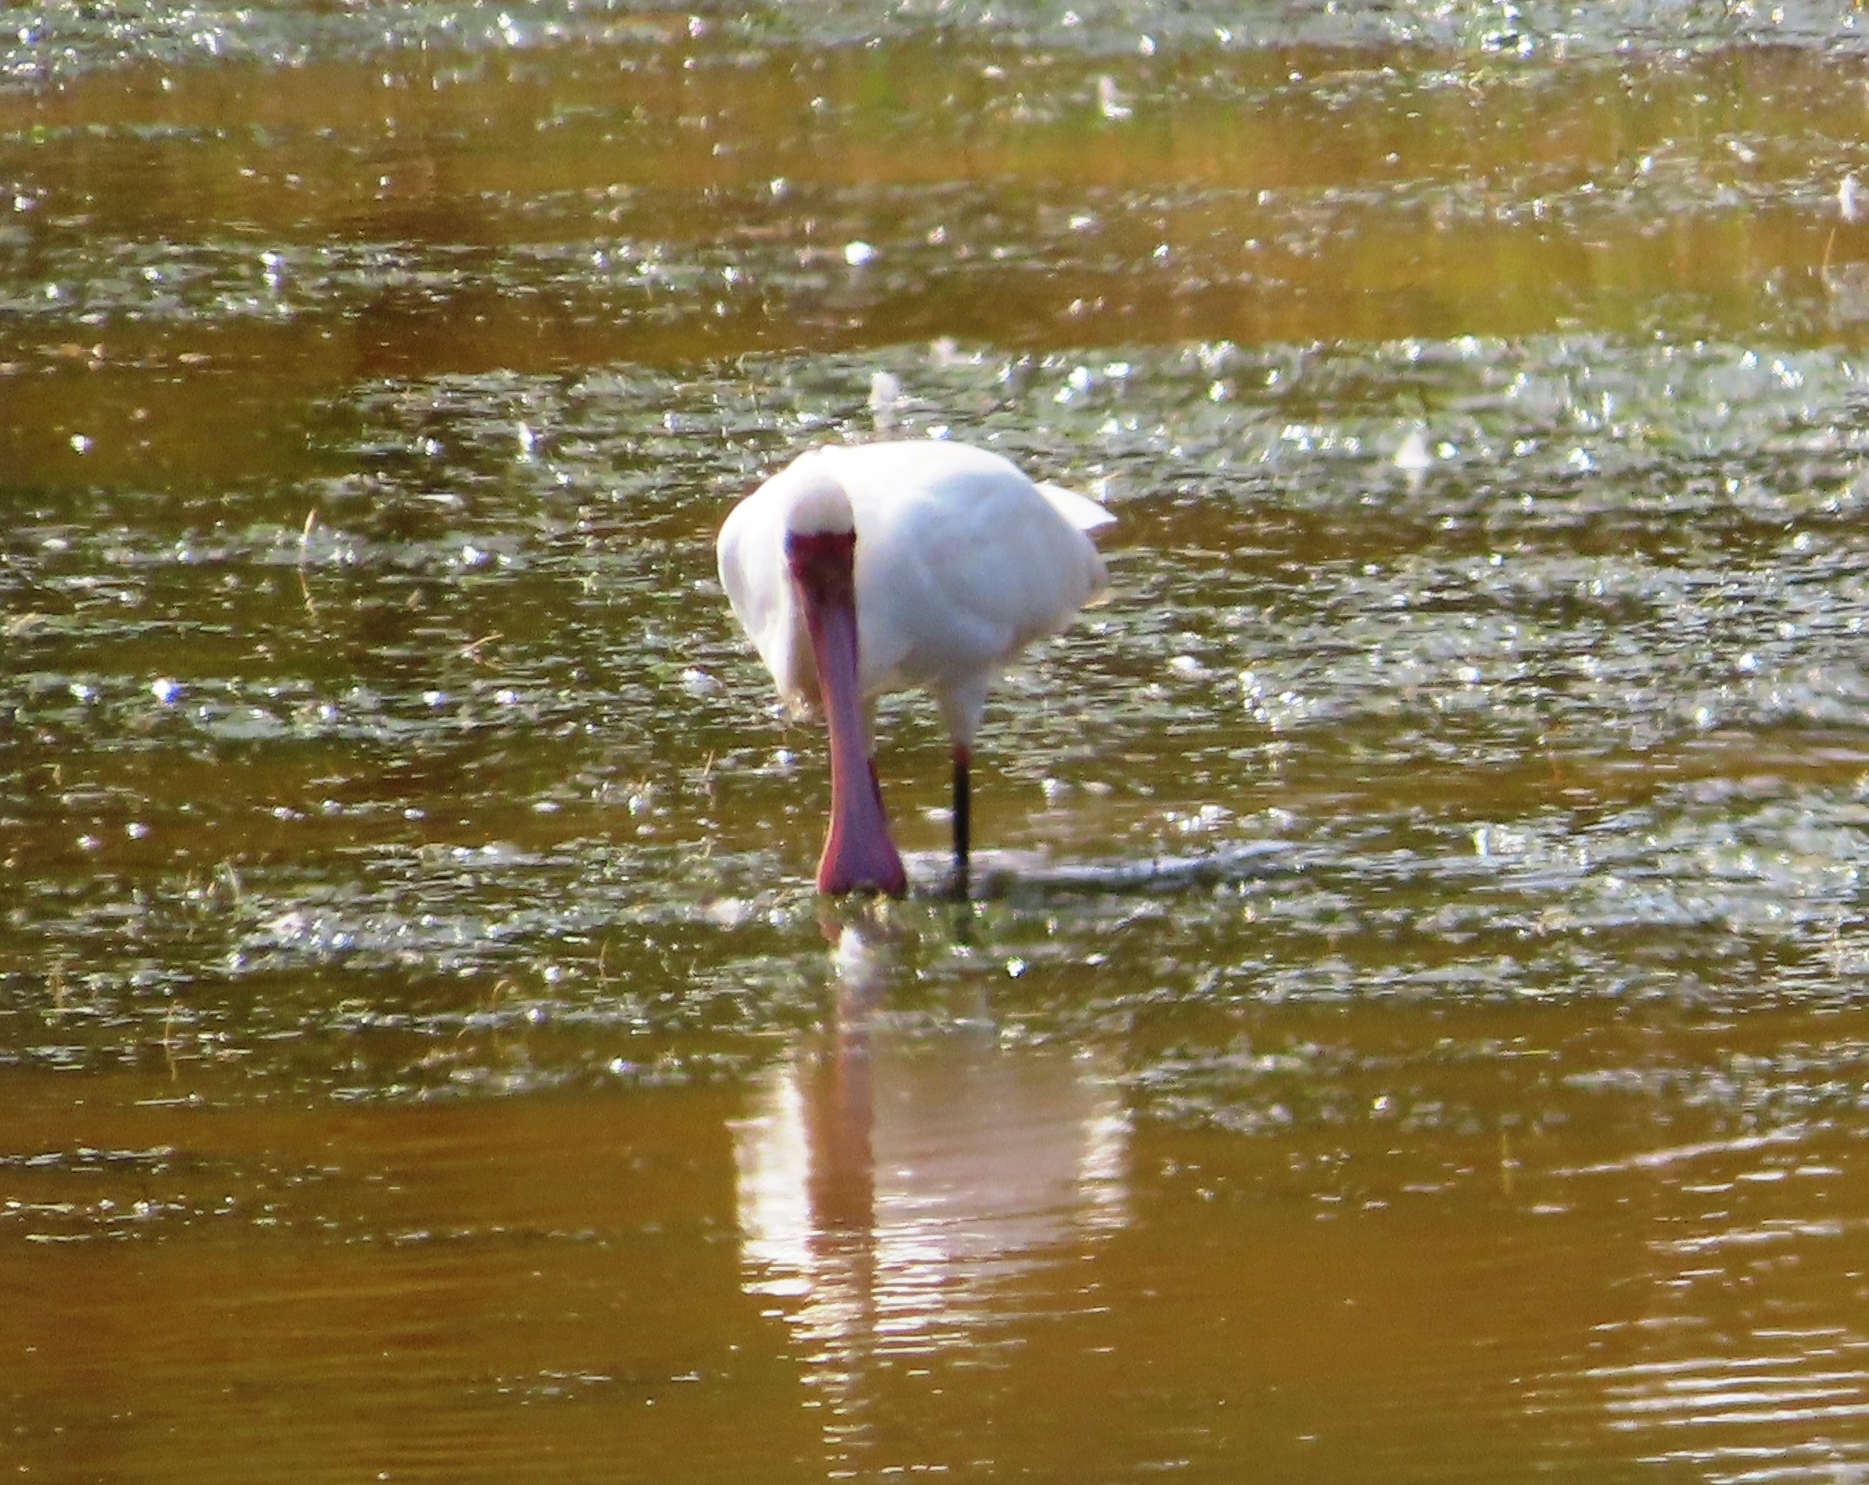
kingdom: Animalia
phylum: Chordata
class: Aves
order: Pelecaniformes
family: Threskiornithidae
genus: Platalea
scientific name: Platalea alba
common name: African spoonbill
